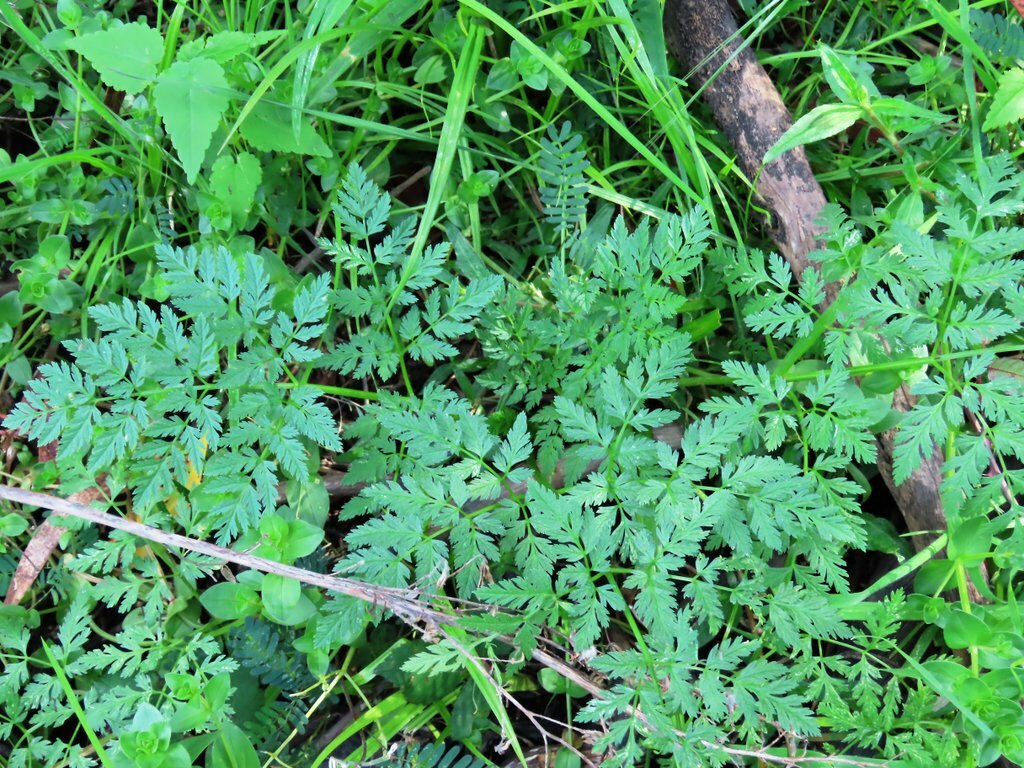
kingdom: Plantae
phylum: Tracheophyta
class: Magnoliopsida
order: Apiales
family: Apiaceae
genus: Conium
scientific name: Conium maculatum
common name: Hemlock
